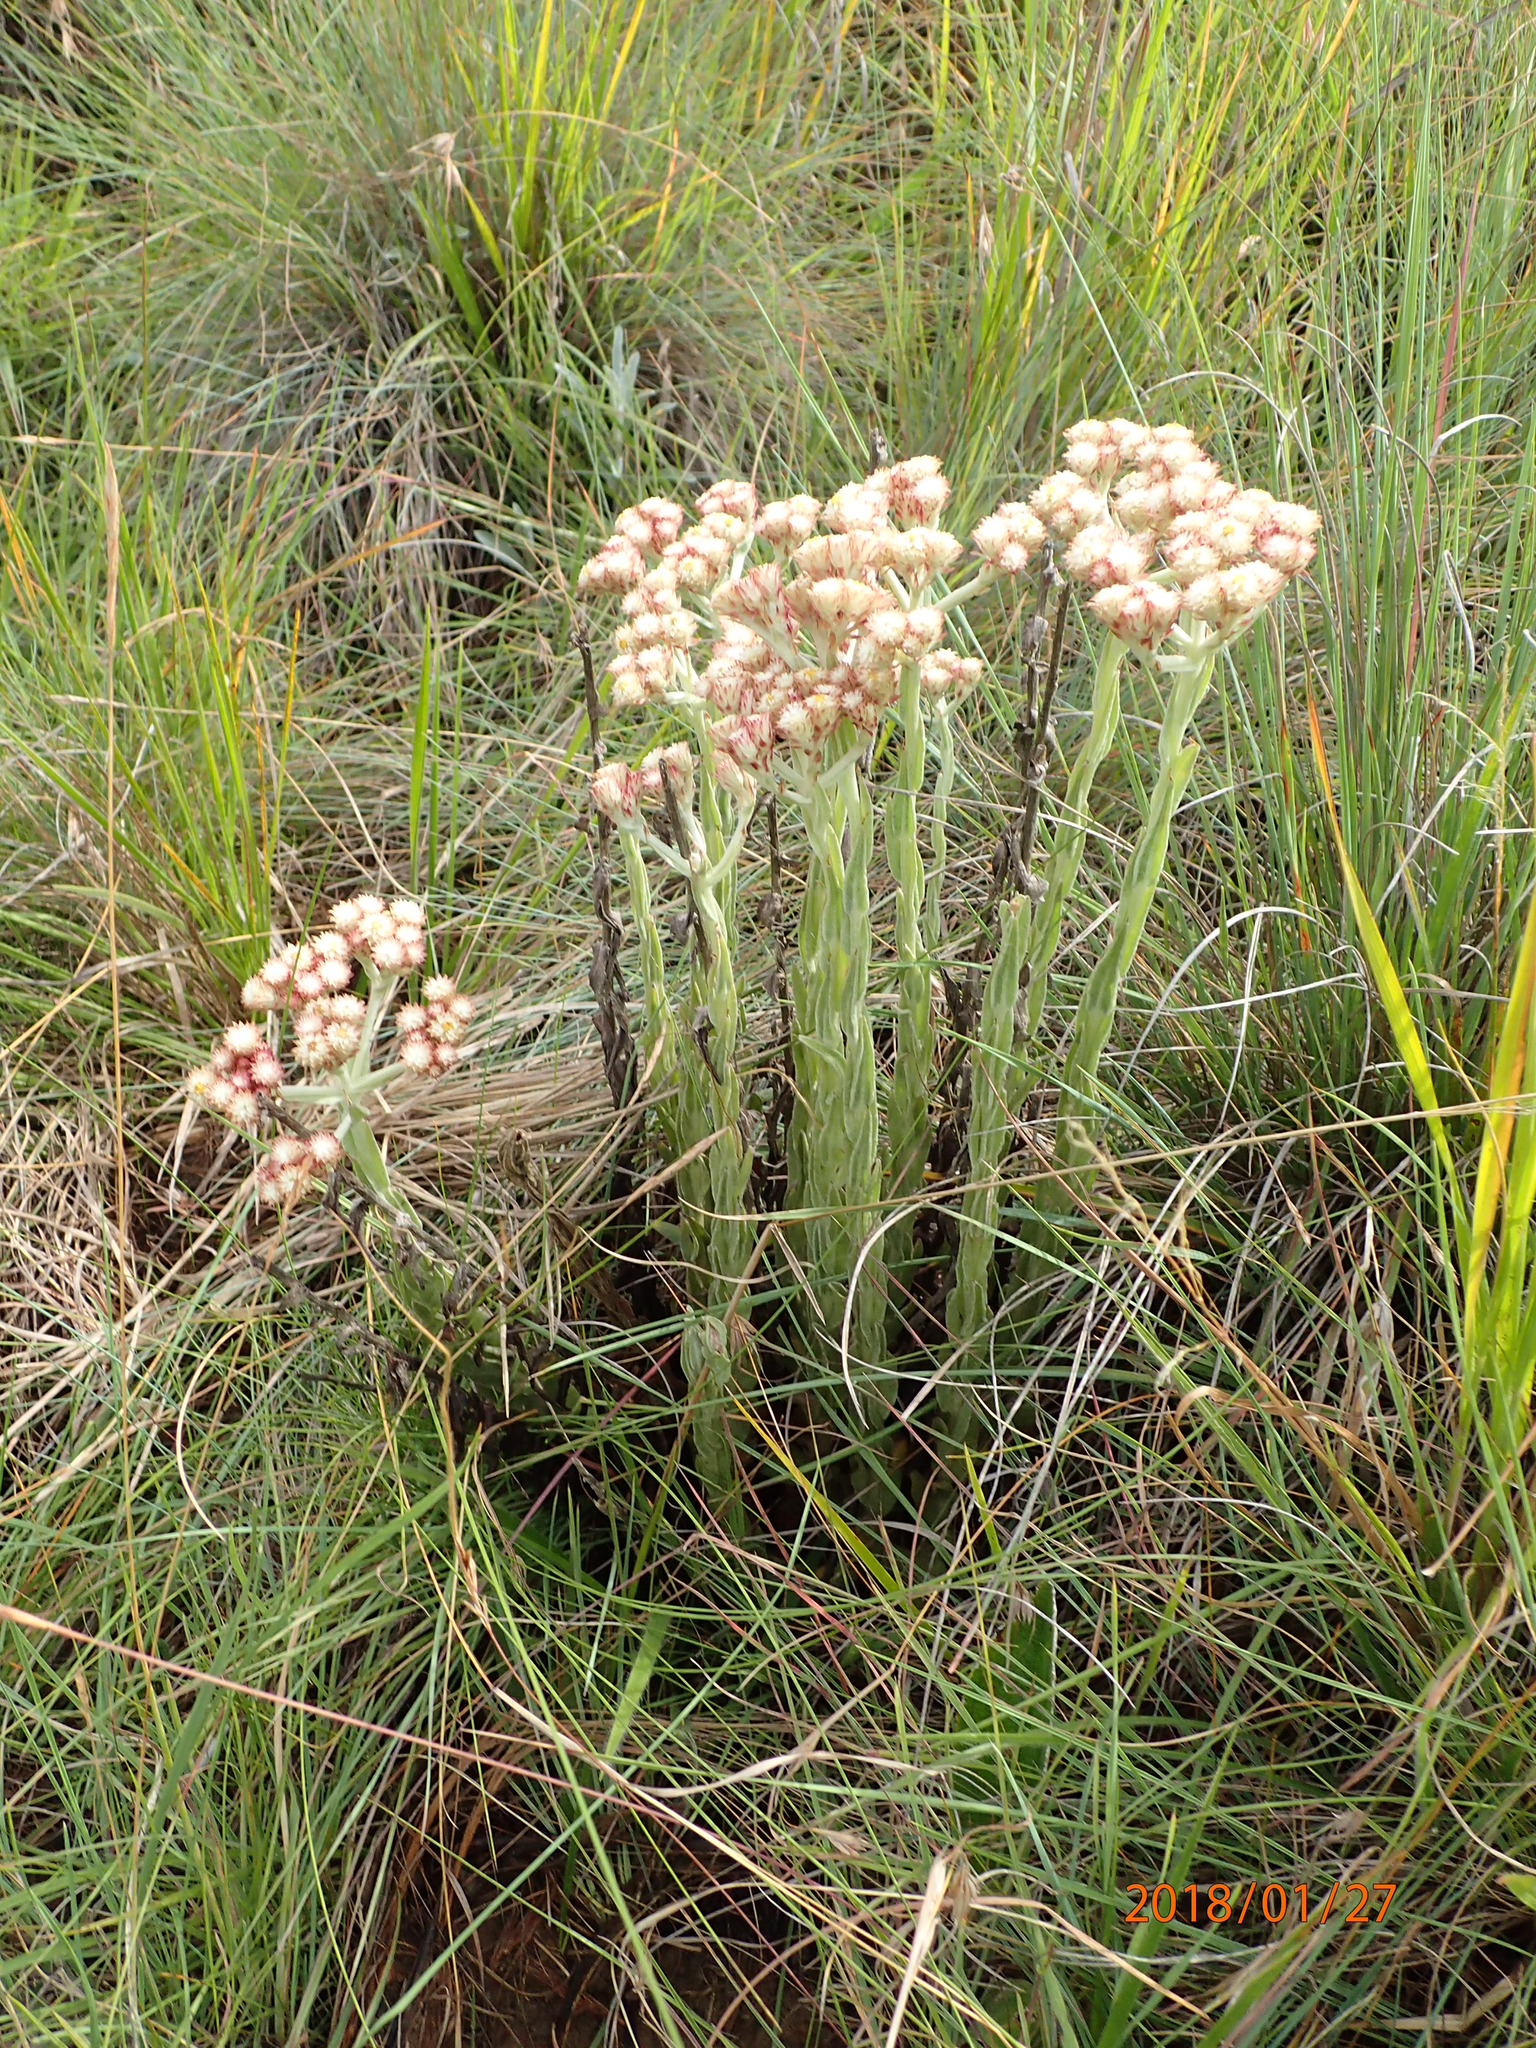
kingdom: Plantae
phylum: Tracheophyta
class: Magnoliopsida
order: Asterales
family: Asteraceae
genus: Helichrysum
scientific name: Helichrysum appendiculatum
